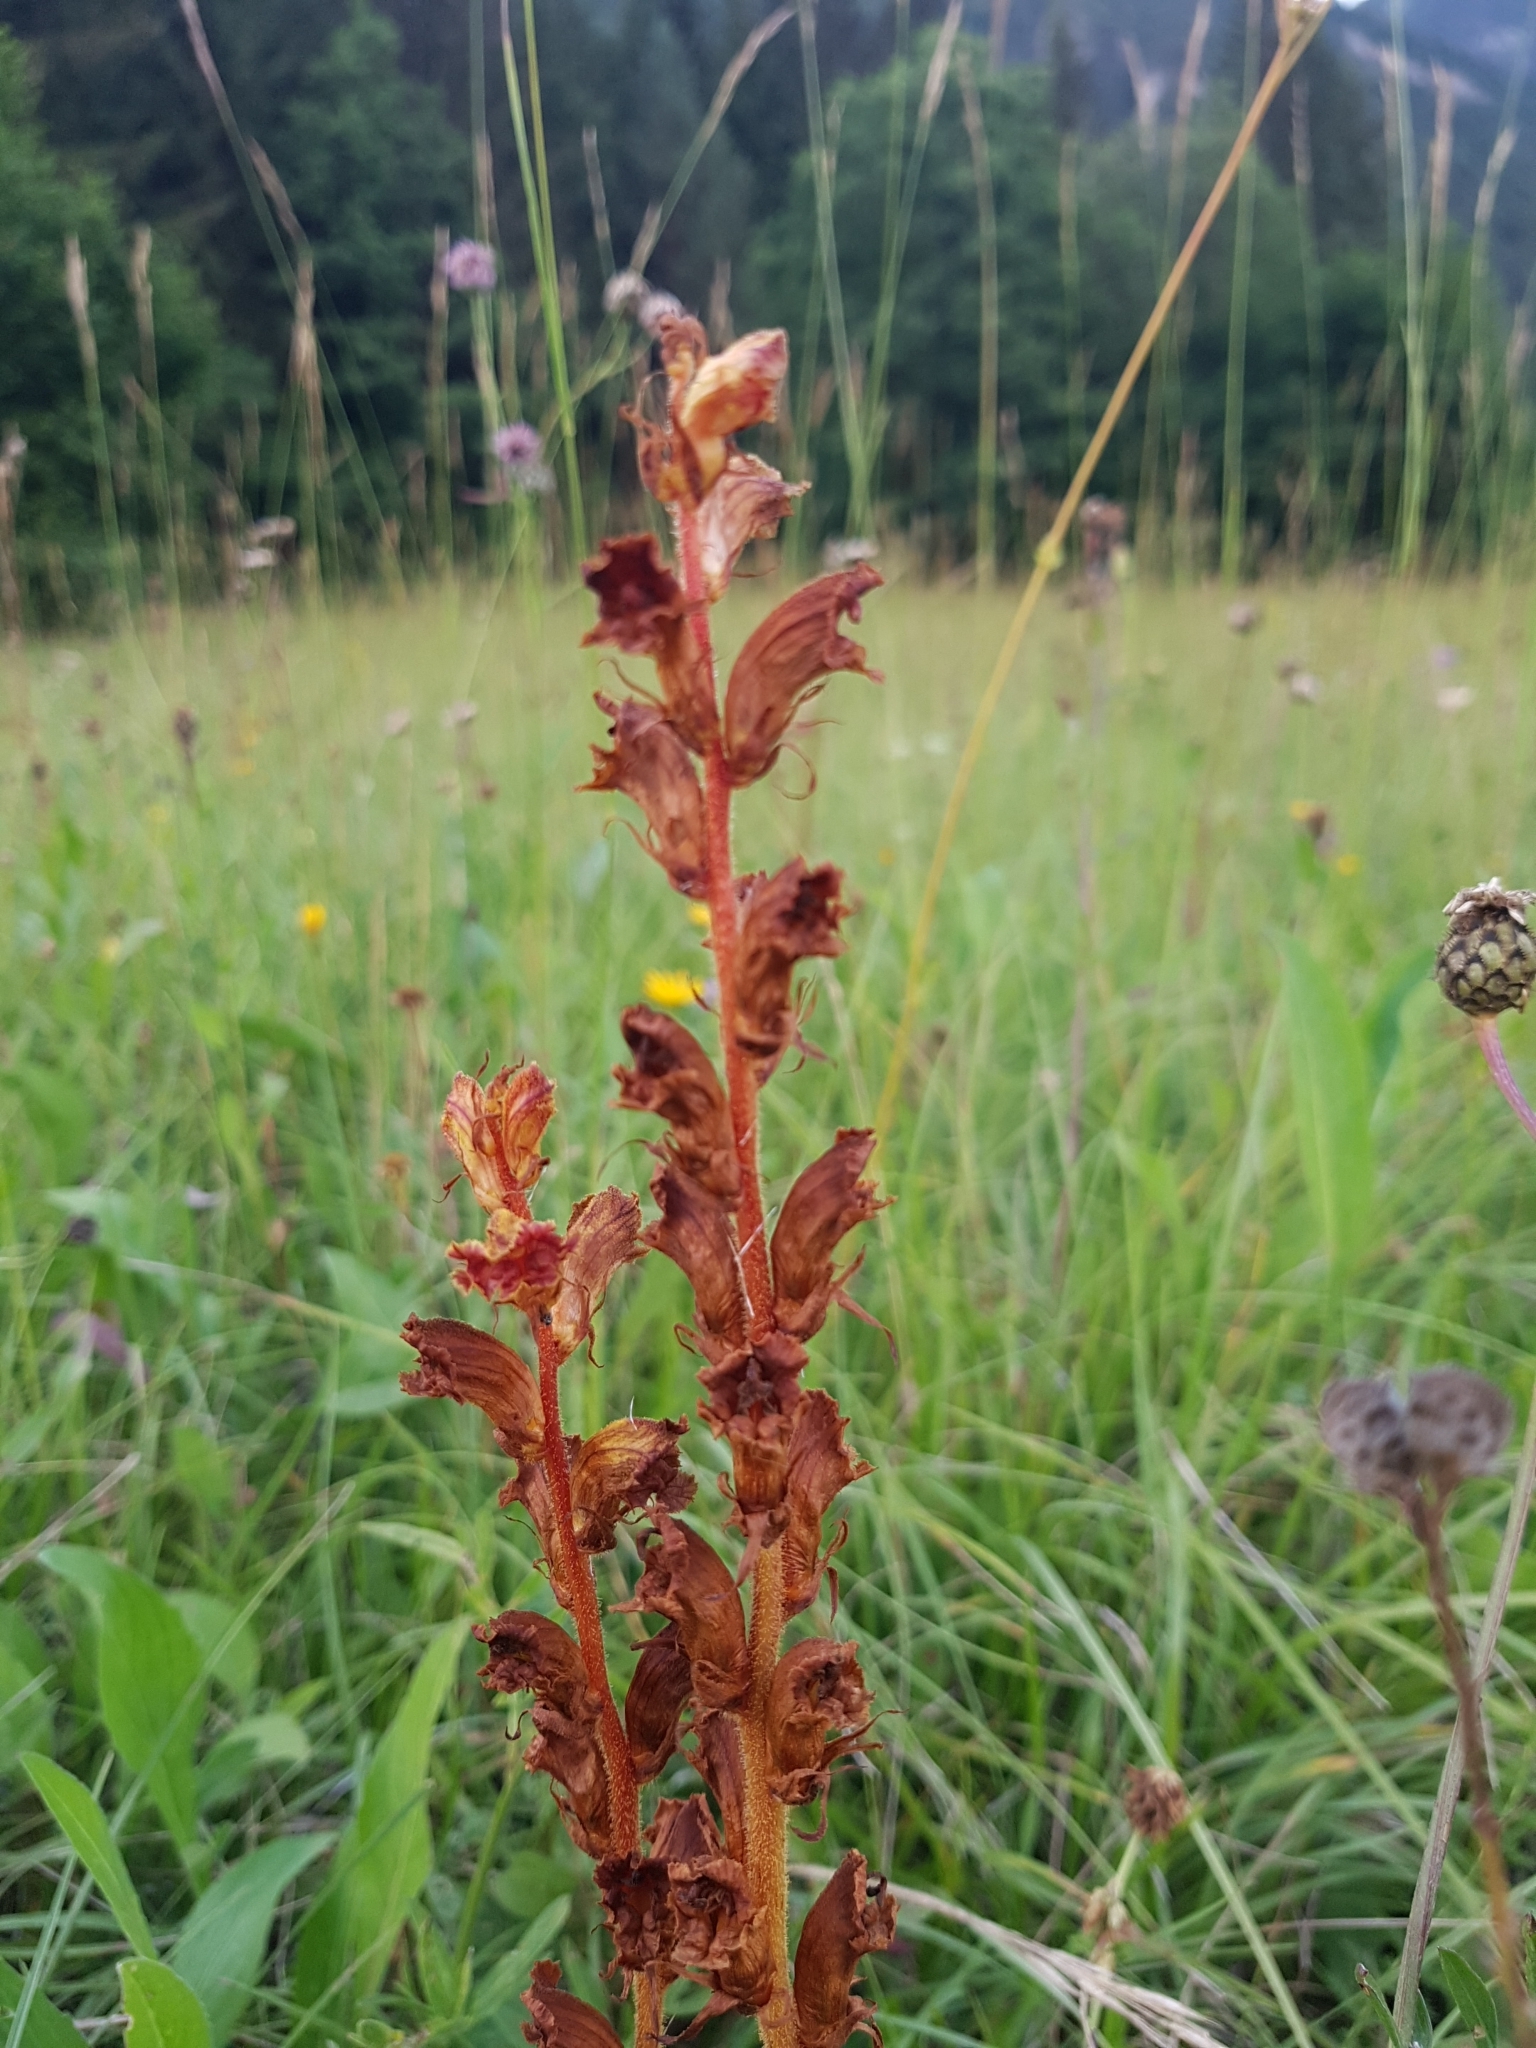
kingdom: Plantae
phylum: Tracheophyta
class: Magnoliopsida
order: Lamiales
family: Orobanchaceae
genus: Orobanche
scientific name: Orobanche gracilis
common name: Slender broomrape
